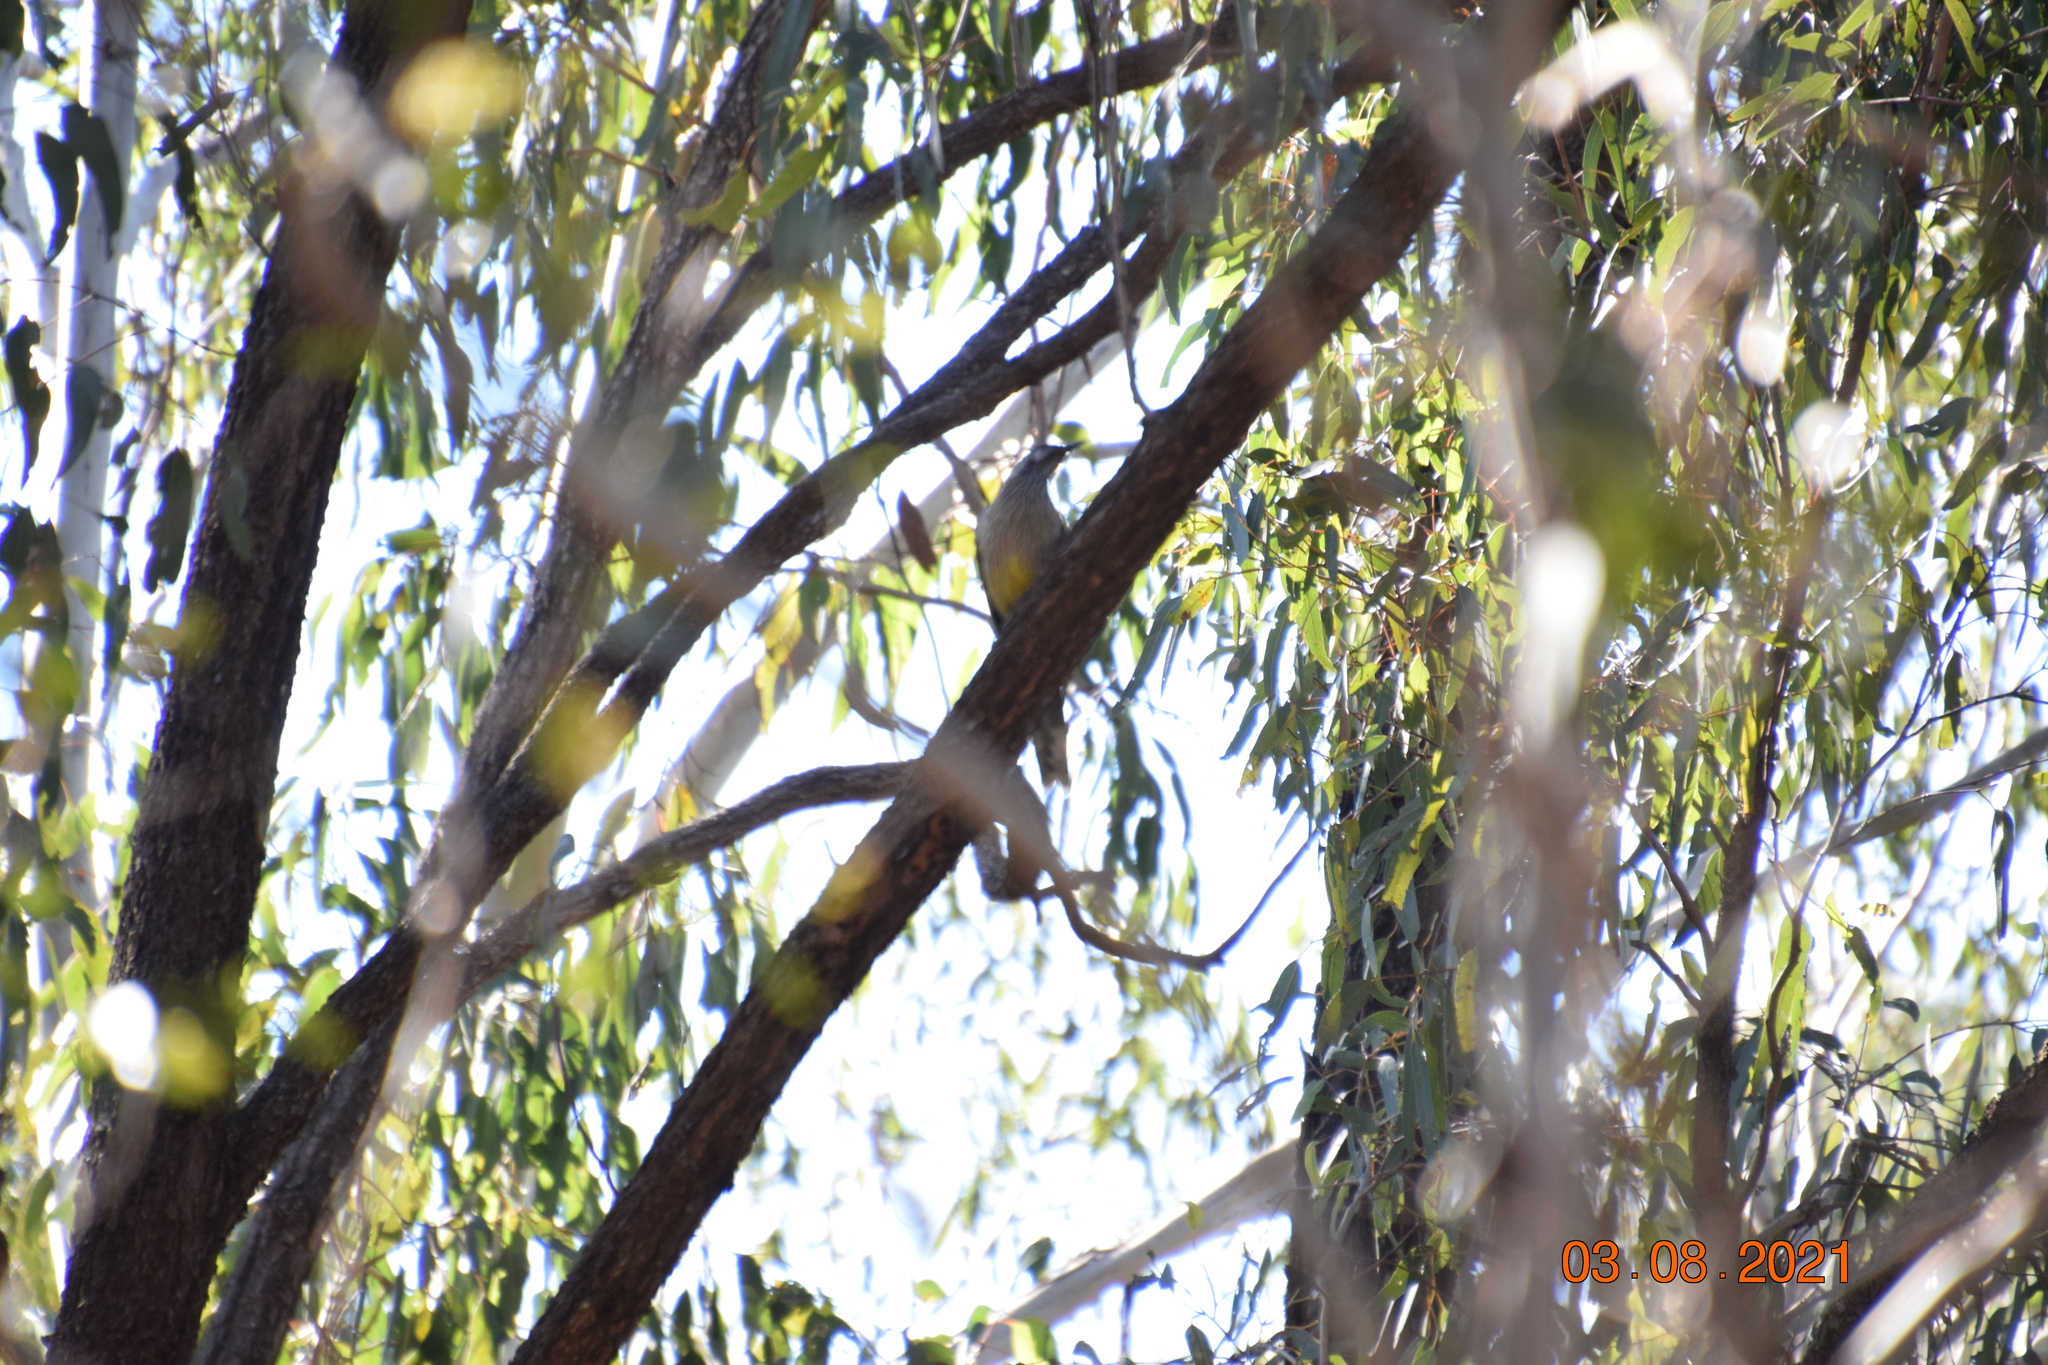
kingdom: Animalia
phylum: Chordata
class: Aves
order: Passeriformes
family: Meliphagidae
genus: Anthochaera
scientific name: Anthochaera carunculata
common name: Red wattlebird
